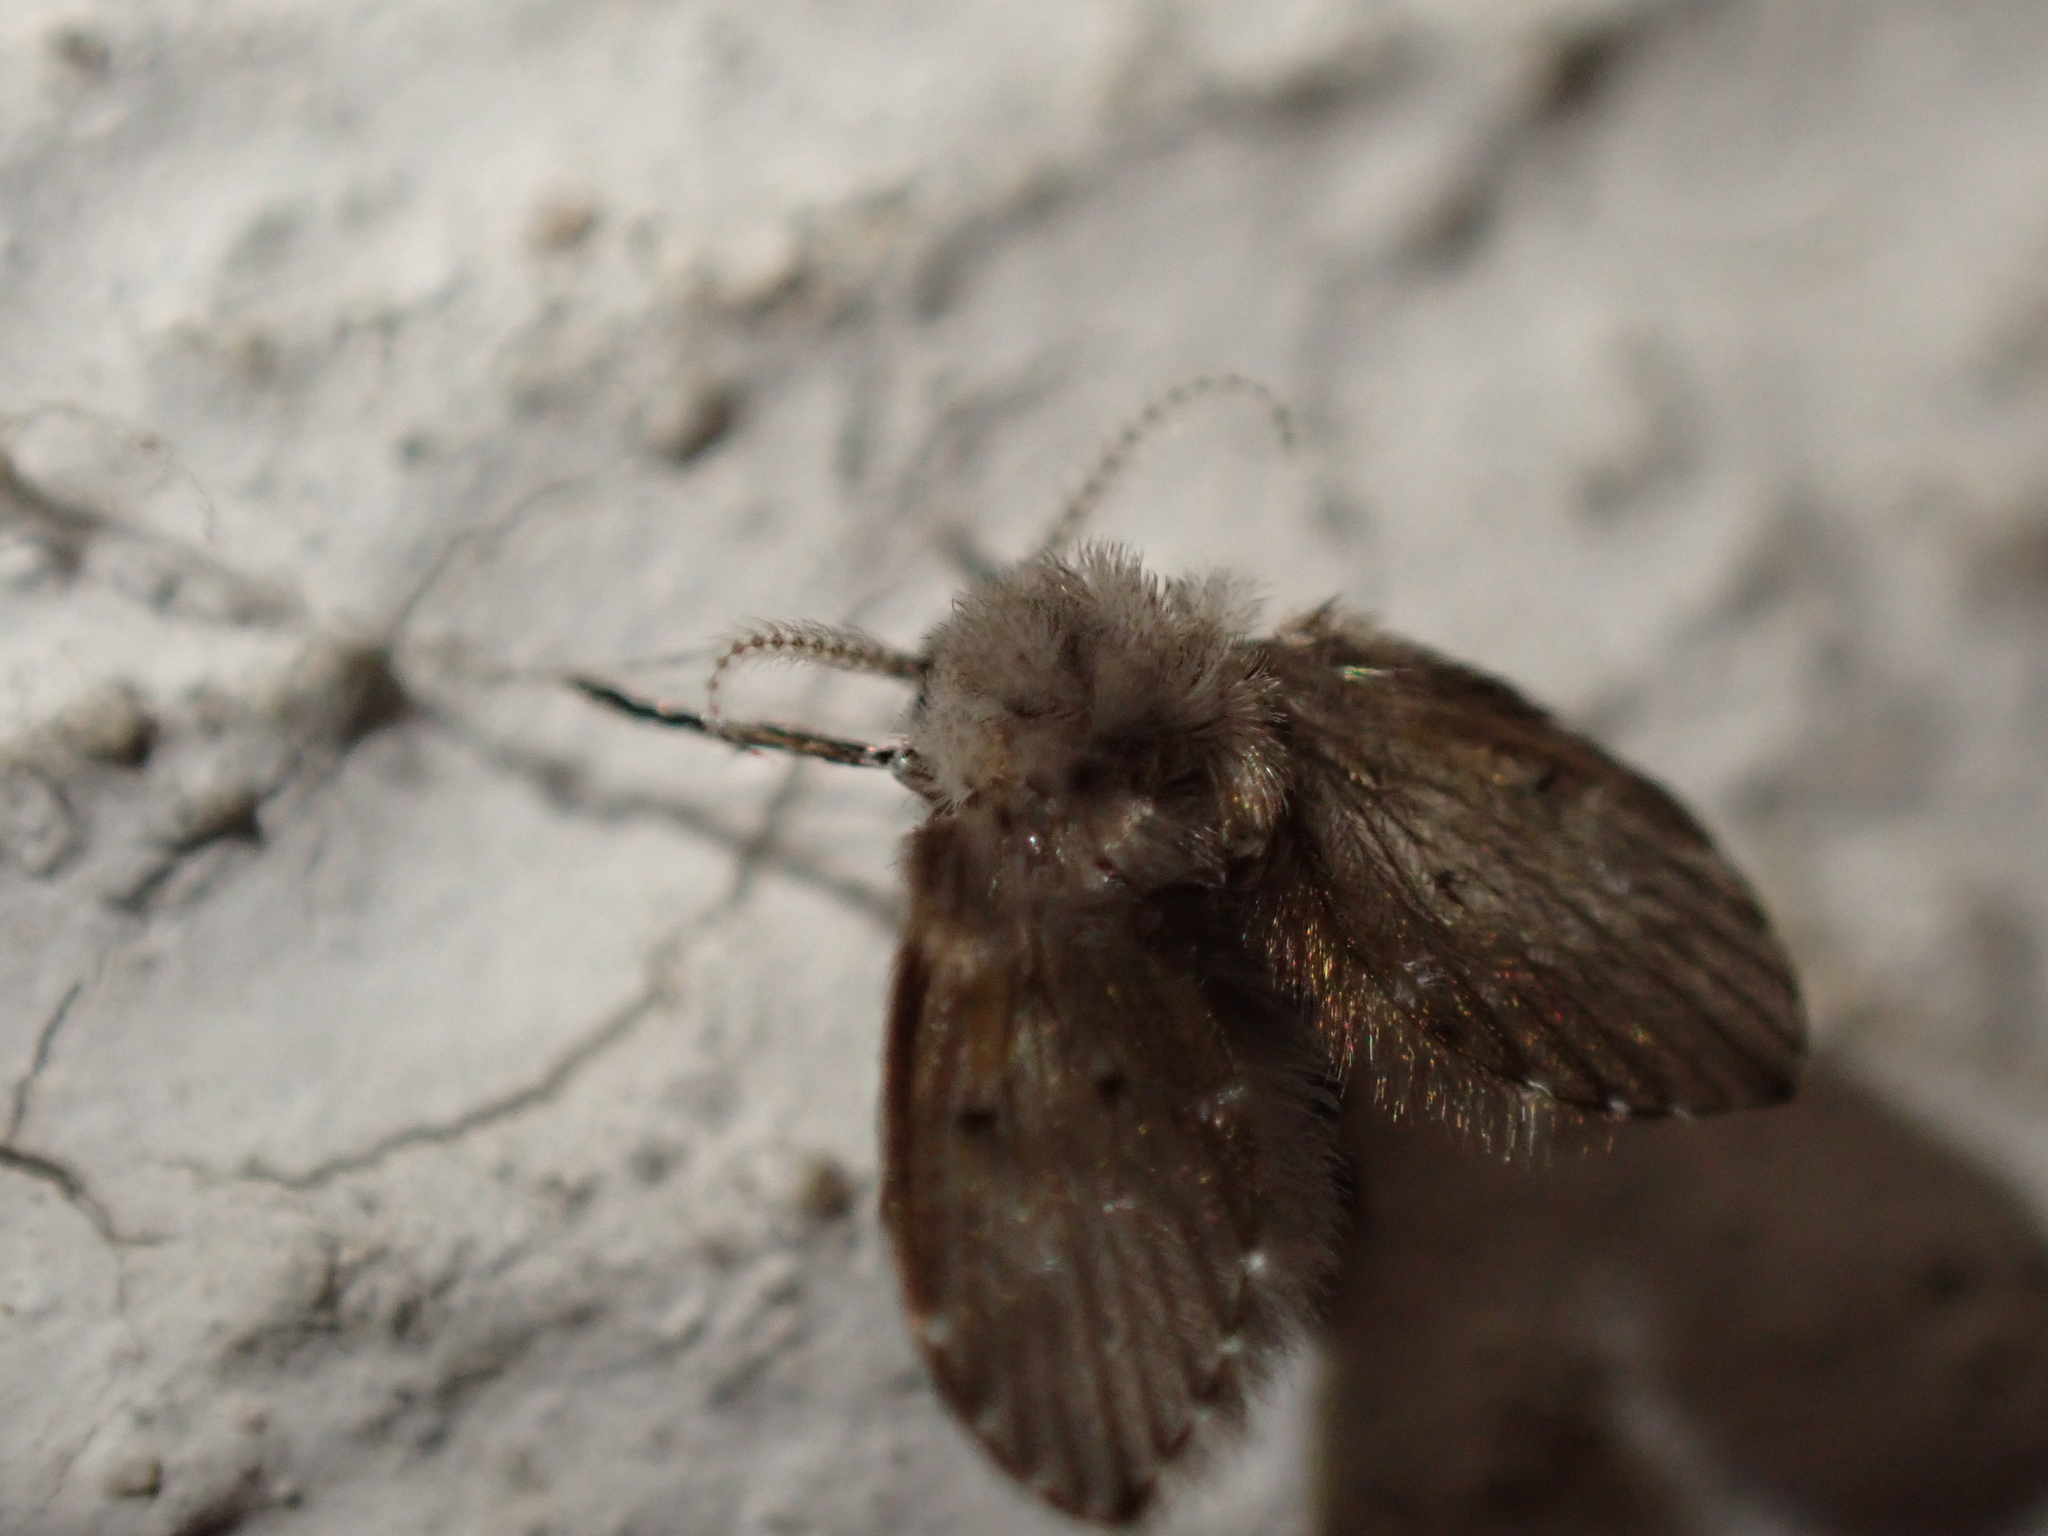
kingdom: Animalia
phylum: Arthropoda
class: Insecta
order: Diptera
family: Psychodidae
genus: Clogmia
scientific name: Clogmia albipunctatus
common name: White-spotted moth fly
